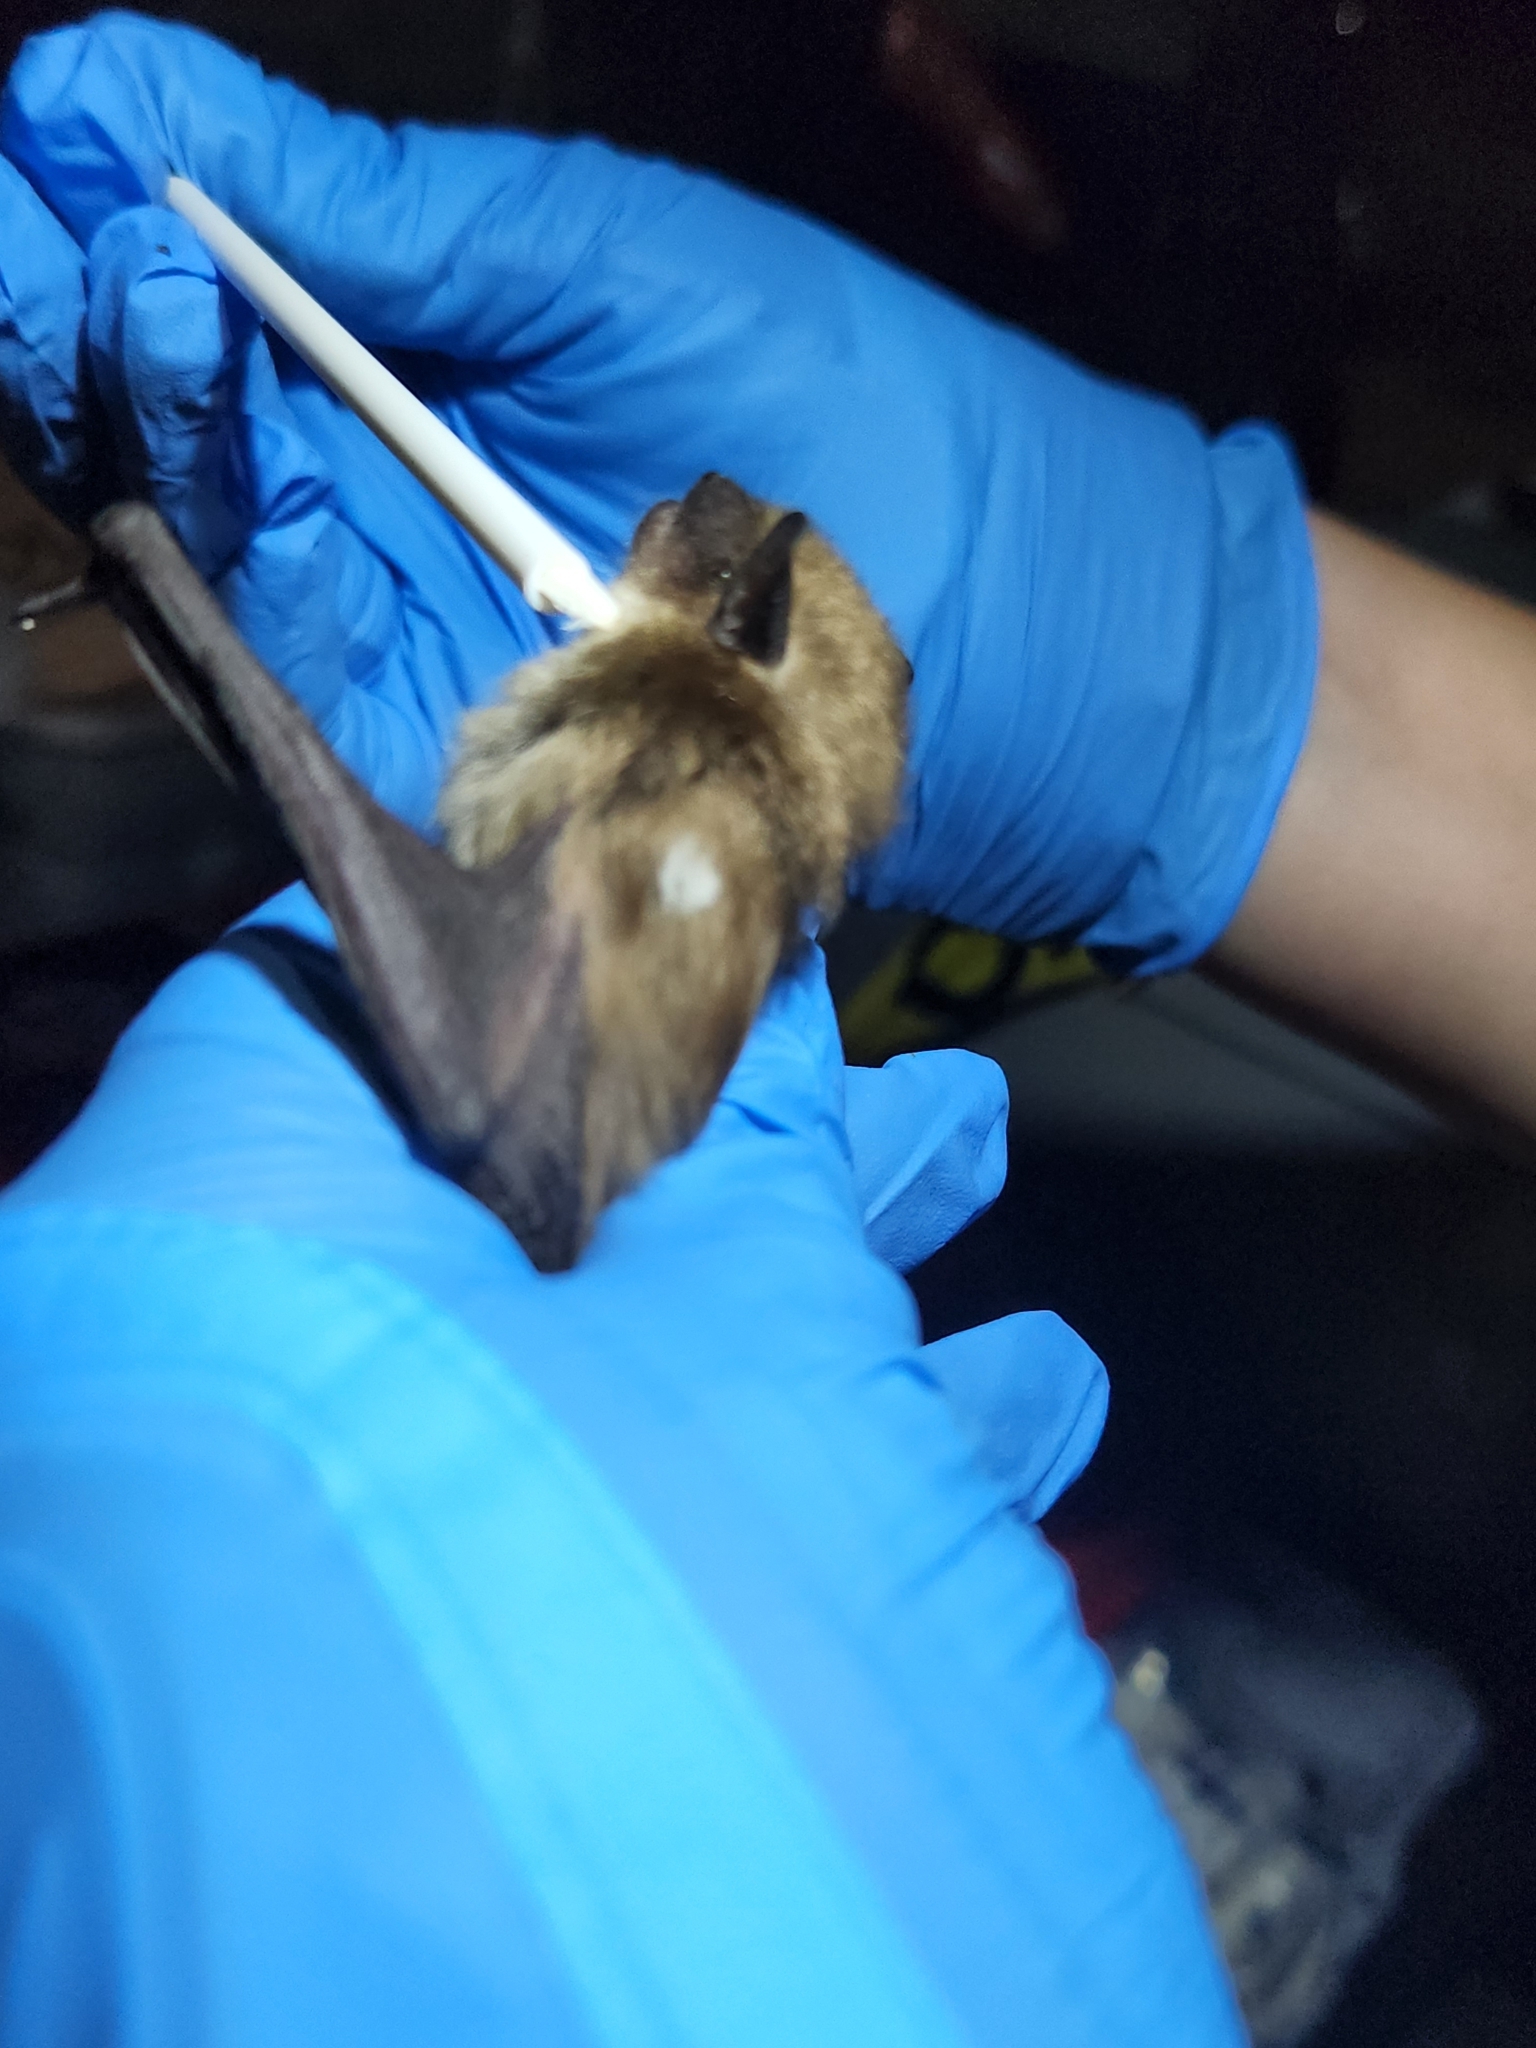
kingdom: Animalia
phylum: Chordata
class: Mammalia
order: Chiroptera
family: Vespertilionidae
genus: Eptesicus
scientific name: Eptesicus fuscus
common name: Big brown bat
